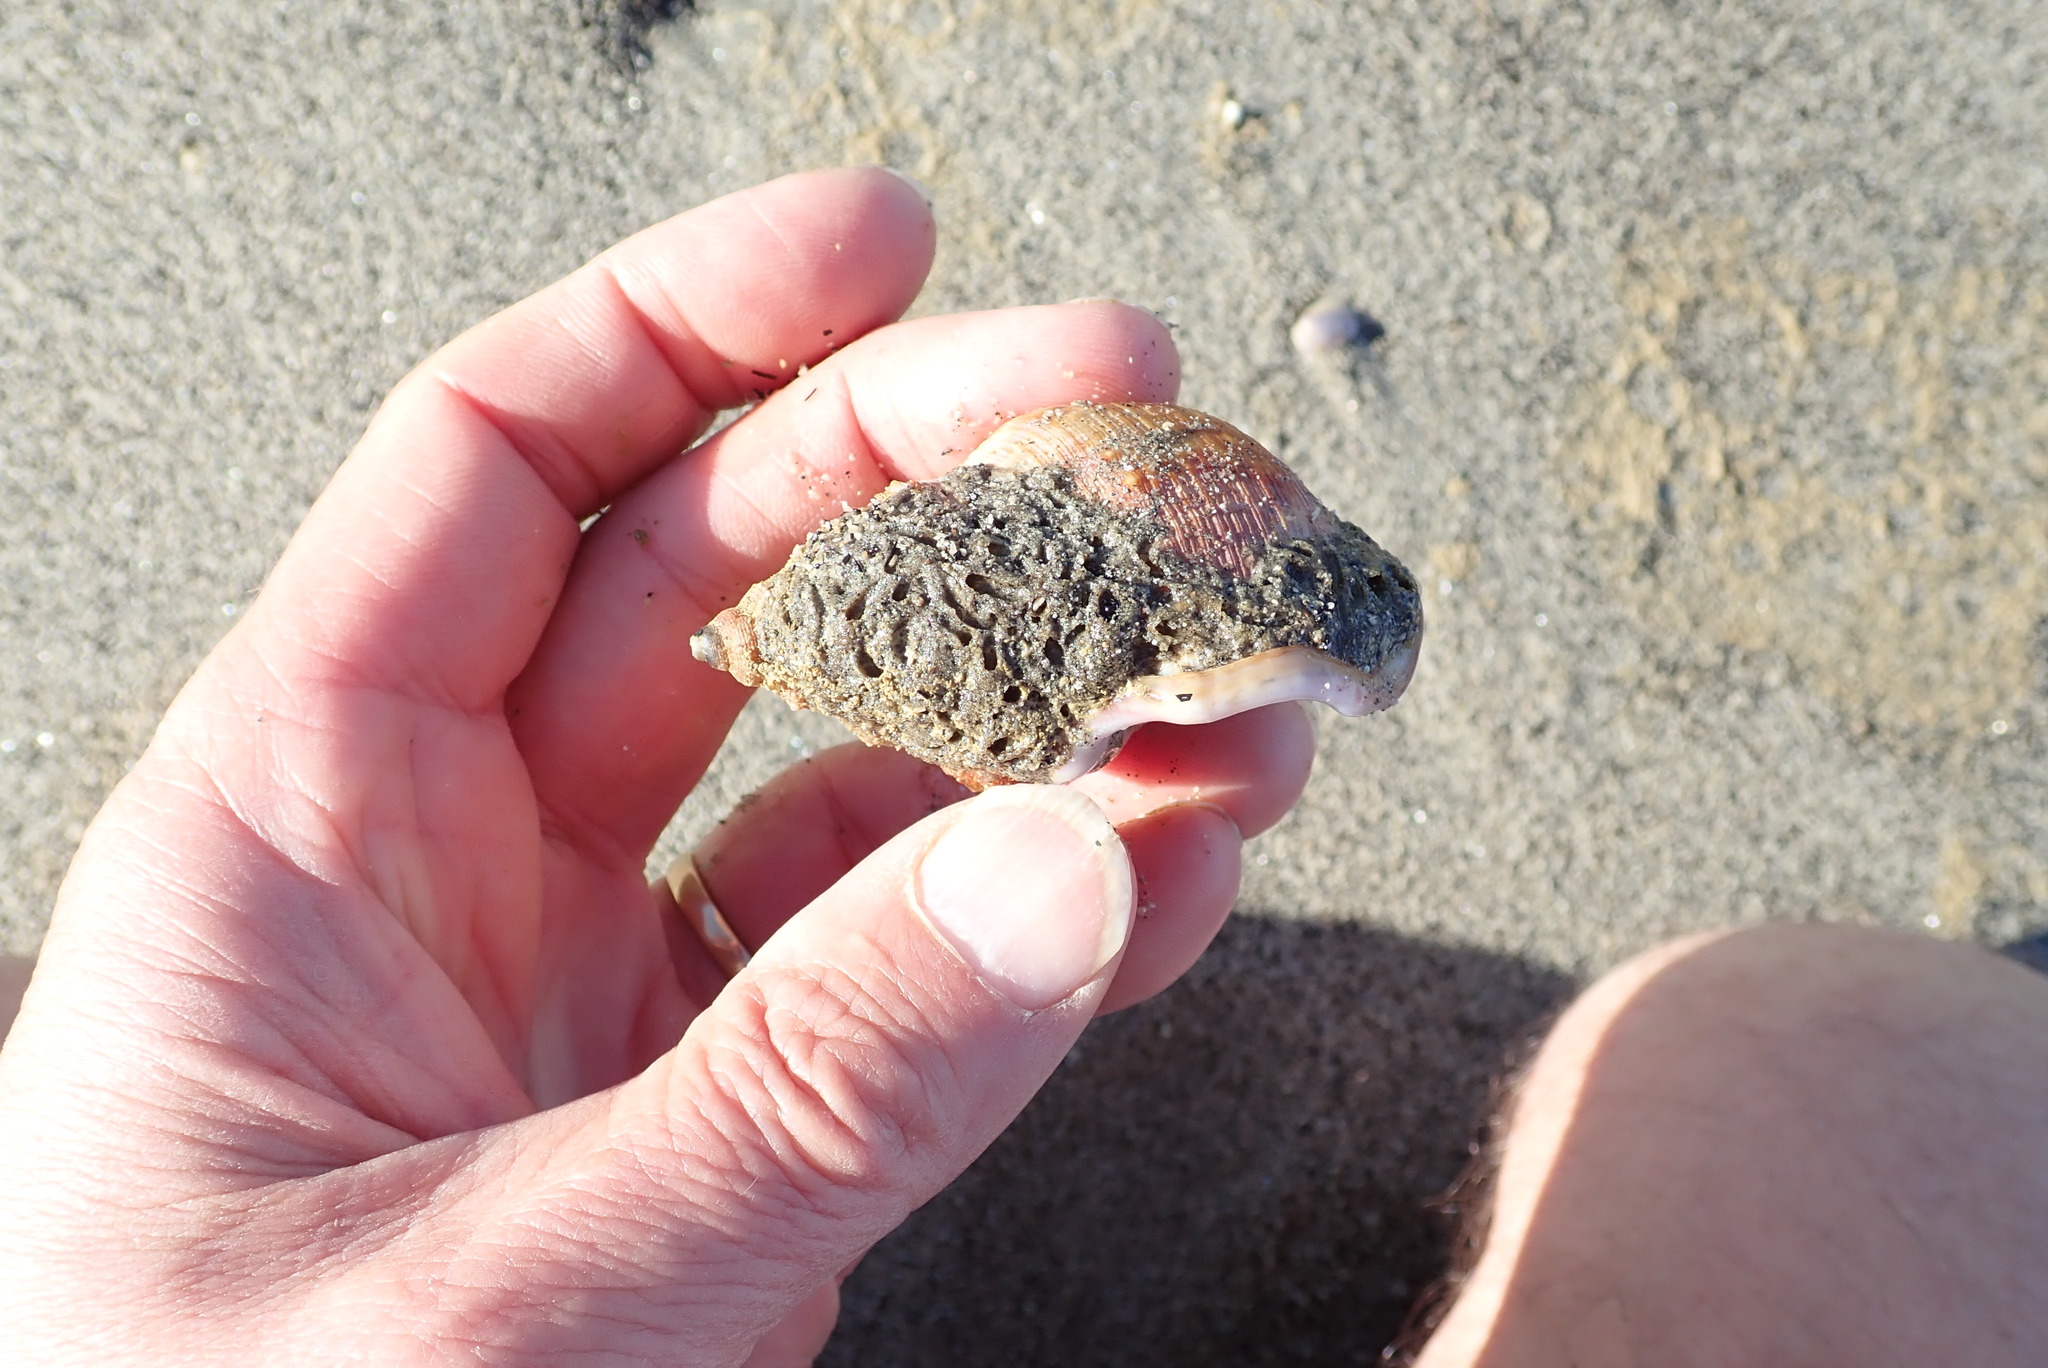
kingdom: Animalia
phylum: Mollusca
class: Gastropoda
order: Littorinimorpha
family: Struthiolariidae
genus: Struthiolaria
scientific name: Struthiolaria papulosa
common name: Large ostrich foot
